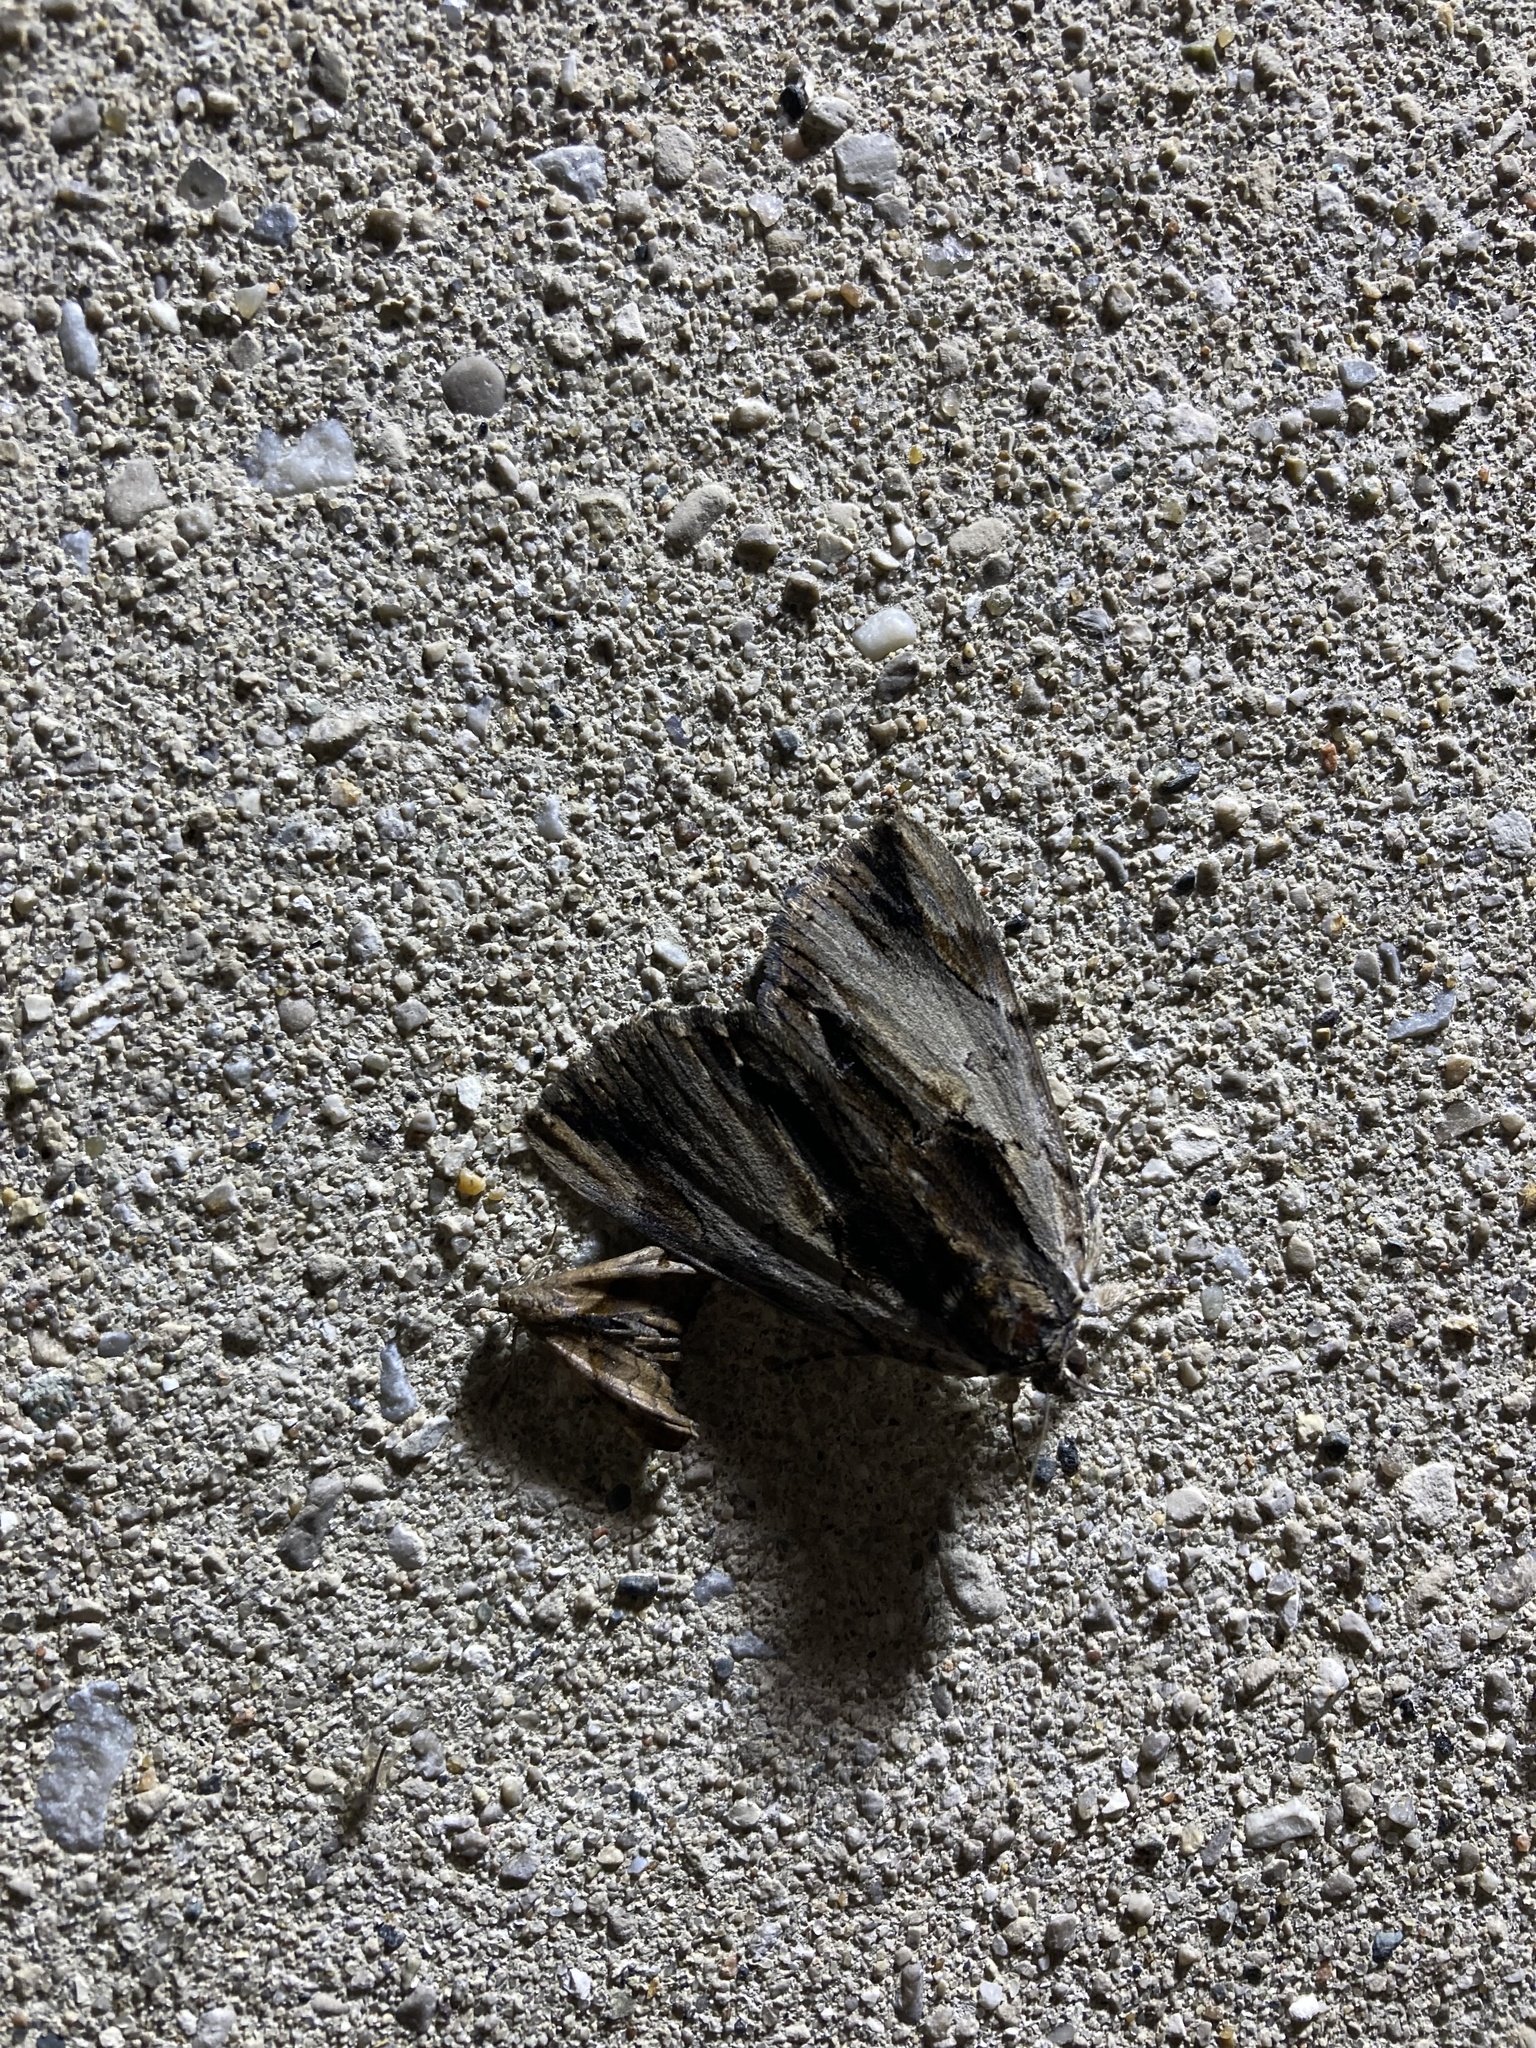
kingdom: Animalia
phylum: Arthropoda
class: Insecta
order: Lepidoptera
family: Erebidae
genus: Catocala
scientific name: Catocala ultronia
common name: Ultronia underwing
